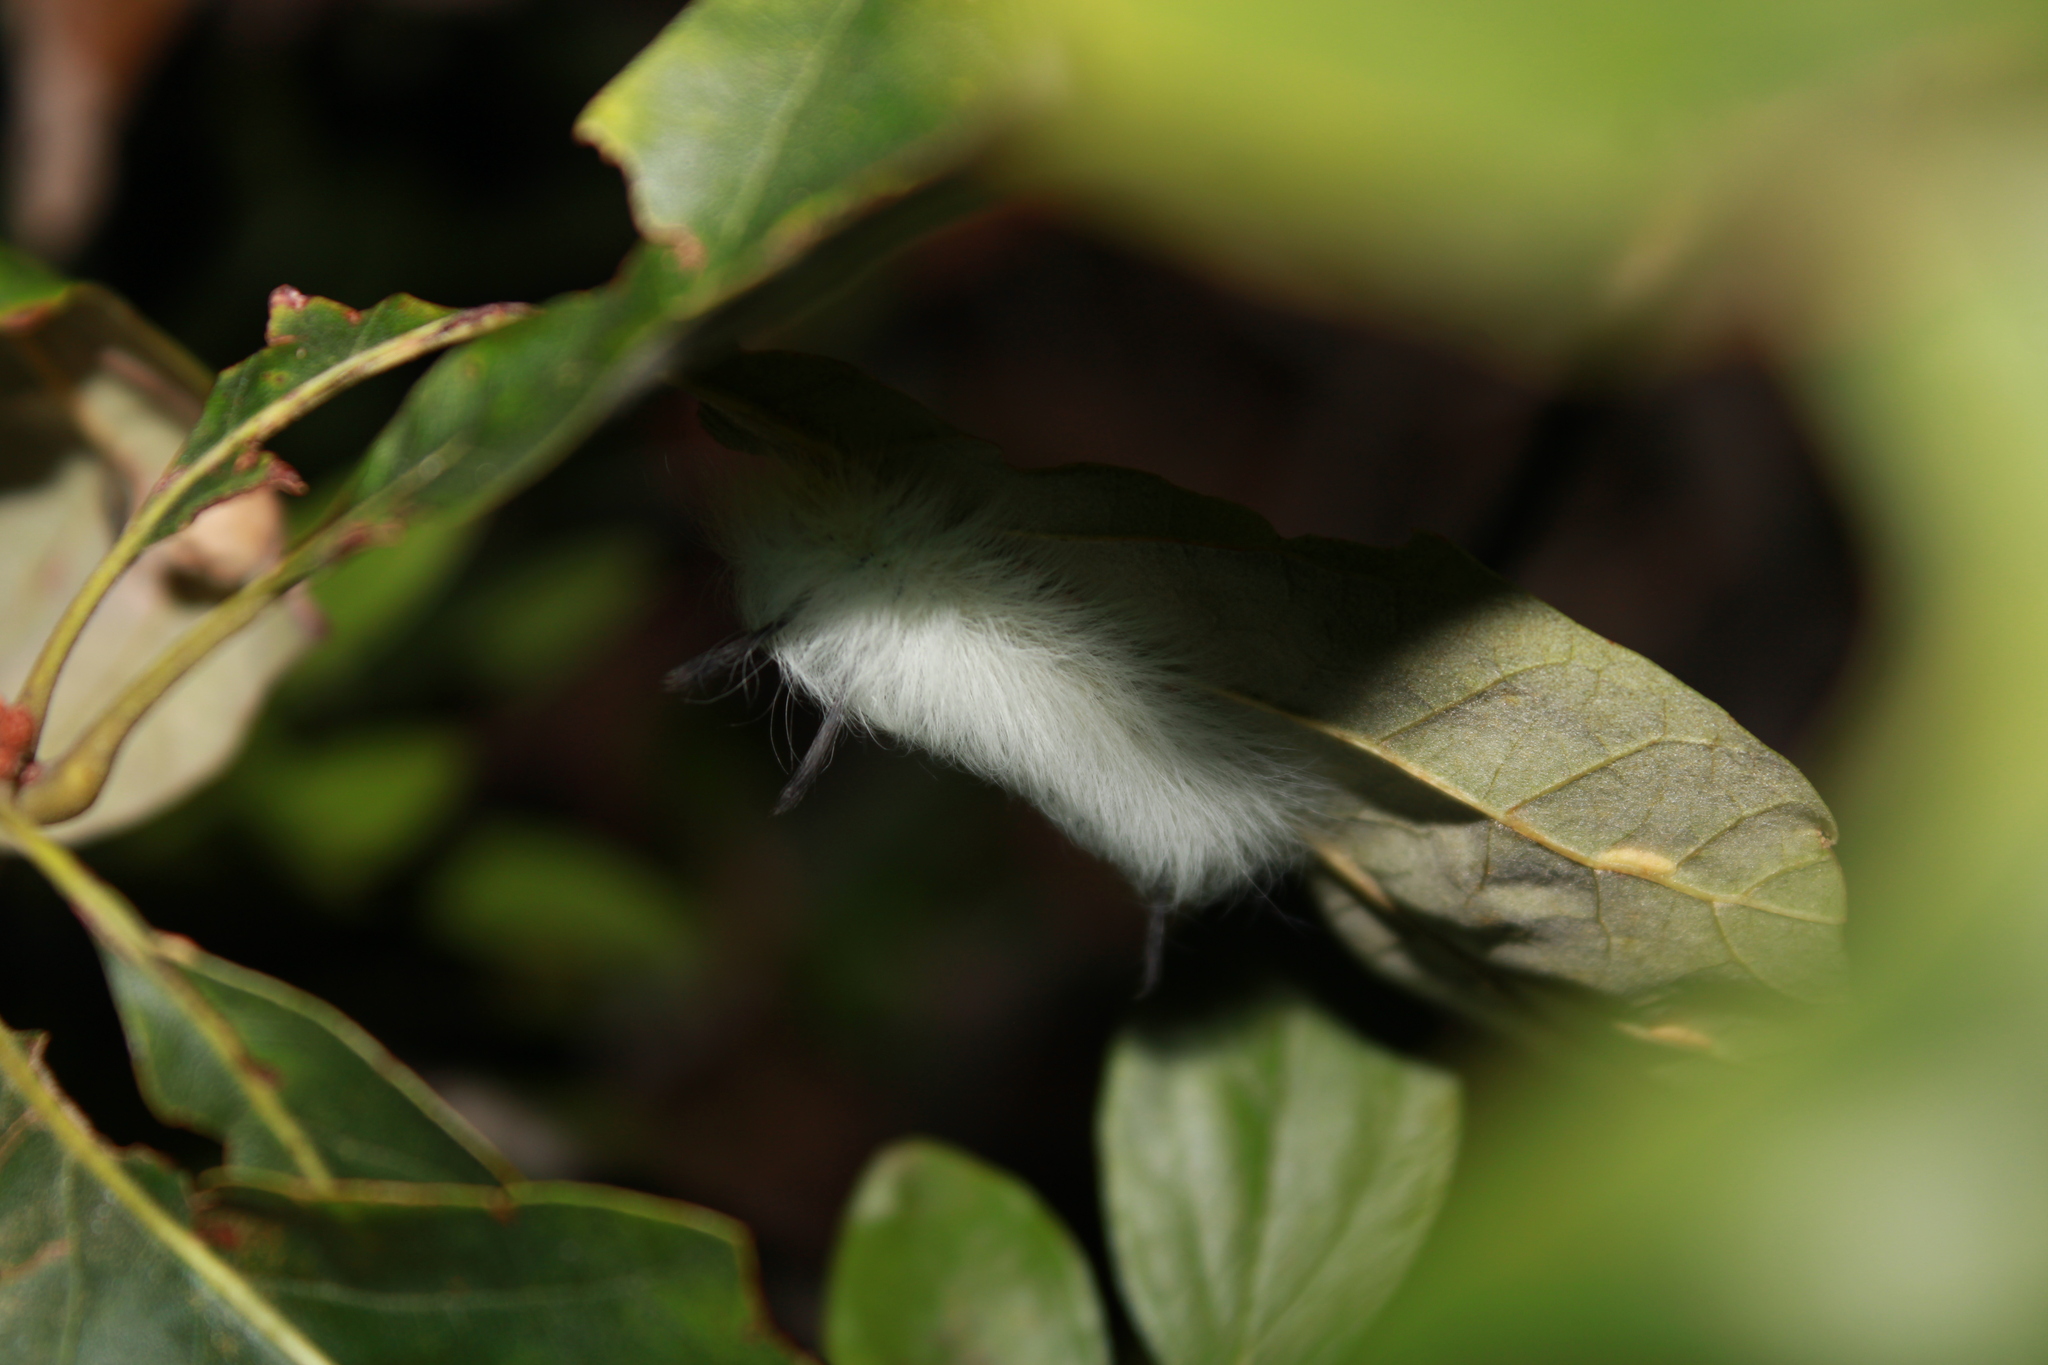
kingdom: Animalia
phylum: Arthropoda
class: Insecta
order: Lepidoptera
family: Apatelodidae
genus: Hygrochroa
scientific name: Hygrochroa Apatelodes torrefacta
